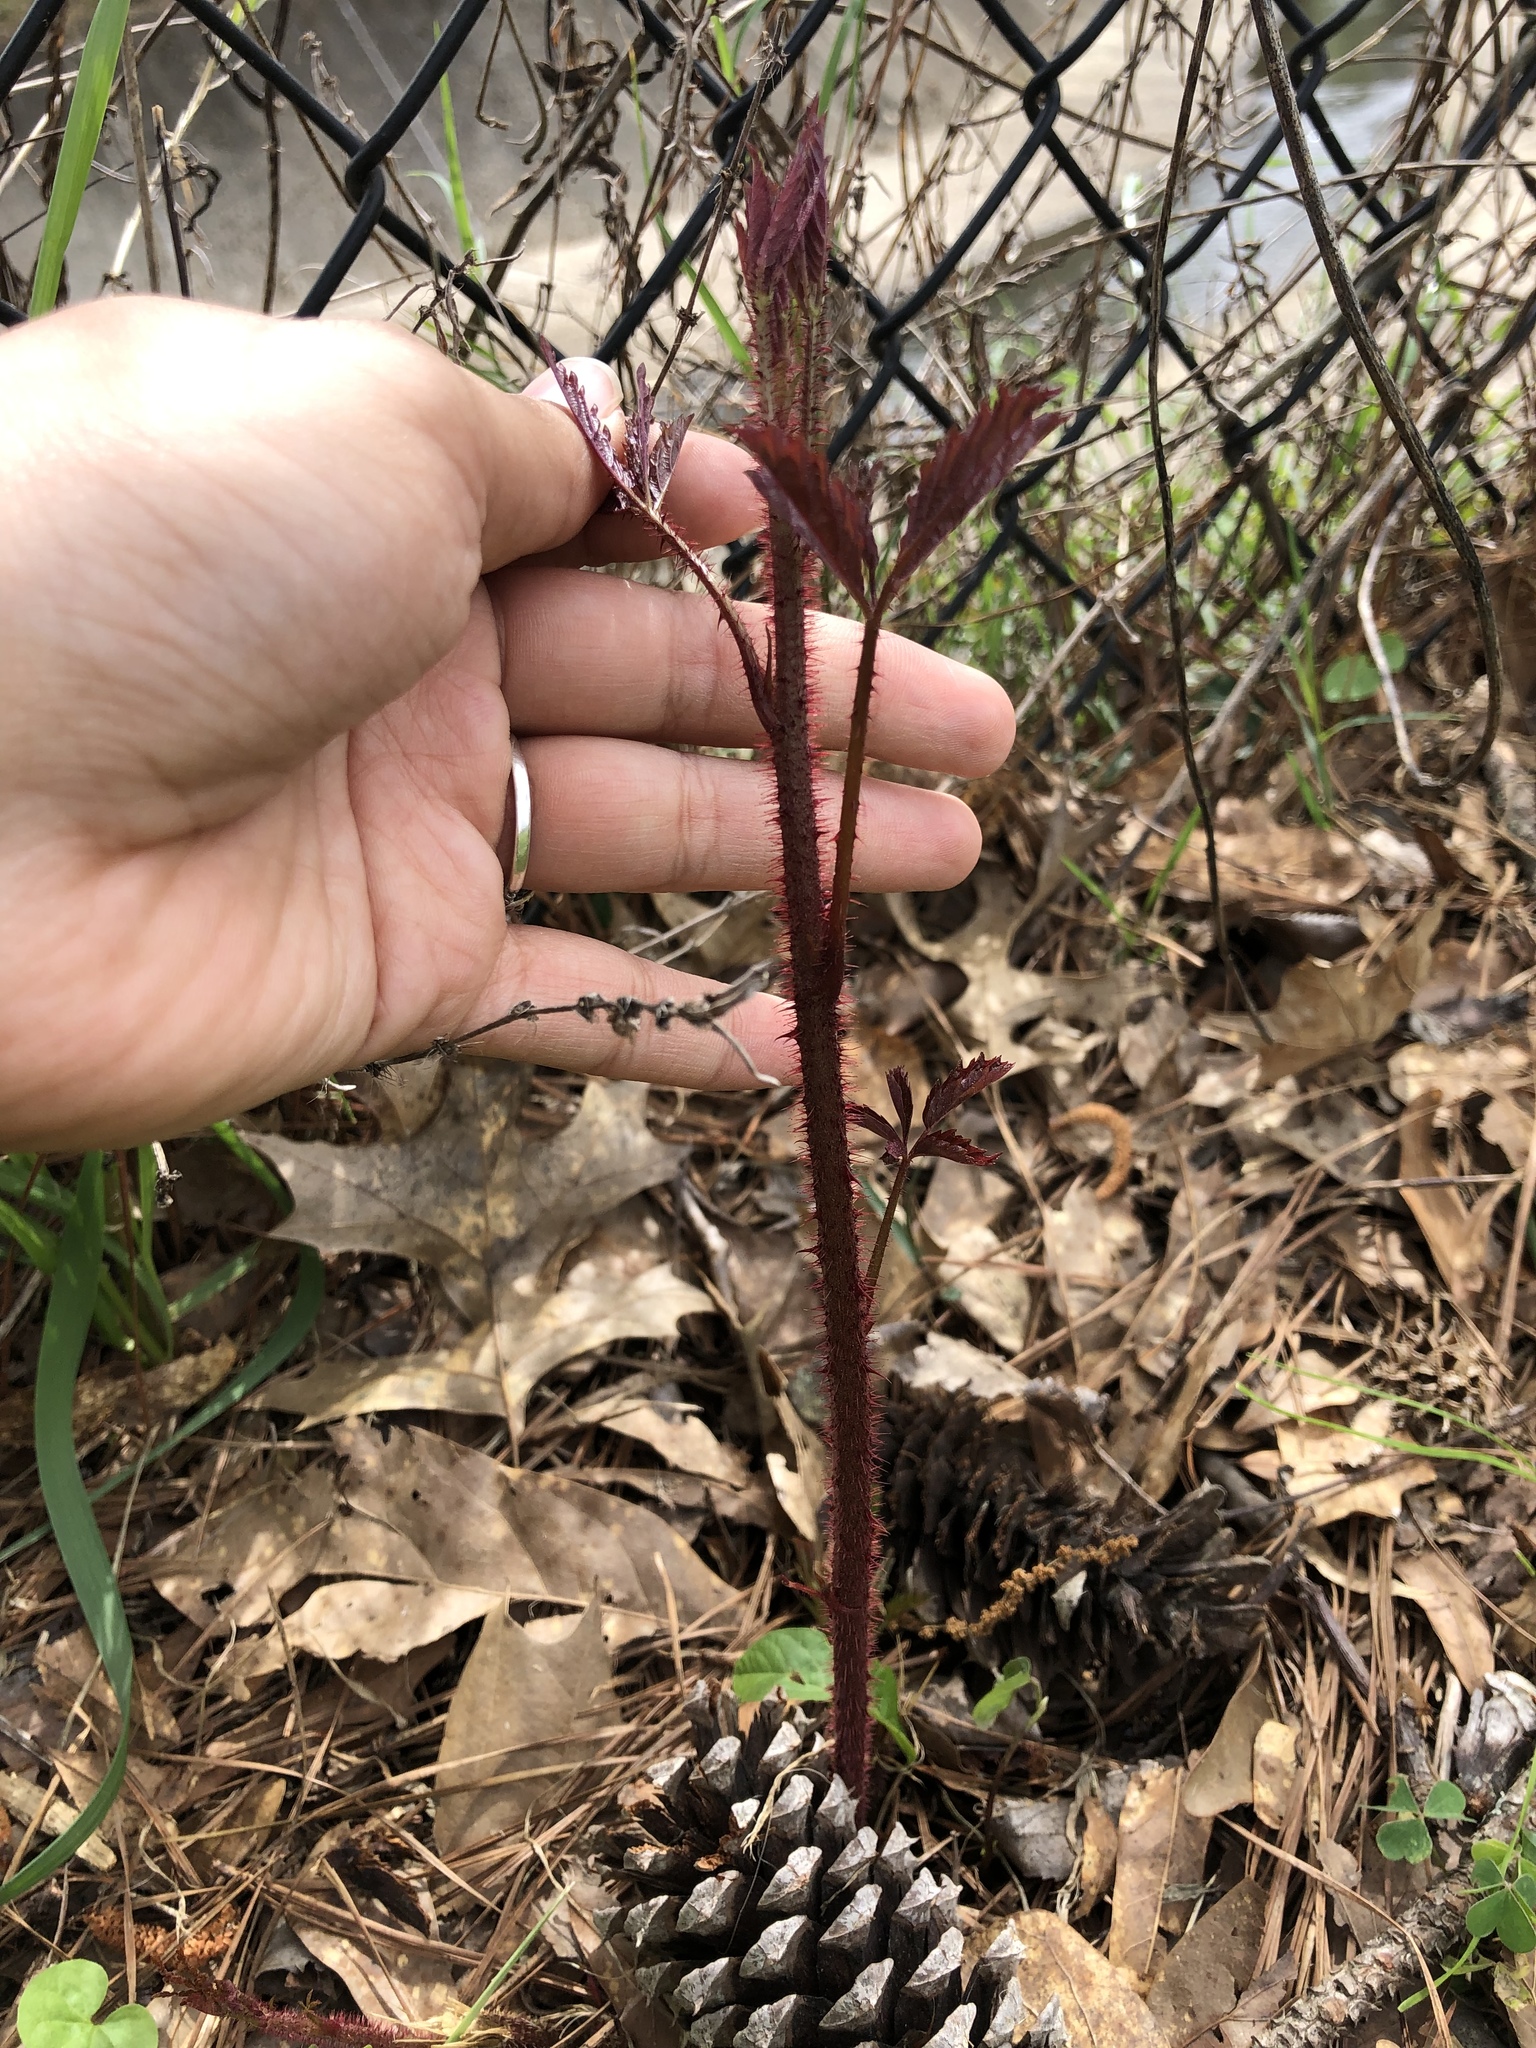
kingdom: Plantae
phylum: Tracheophyta
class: Magnoliopsida
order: Rosales
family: Rosaceae
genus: Rubus
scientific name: Rubus trivialis
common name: Southern dewberry
